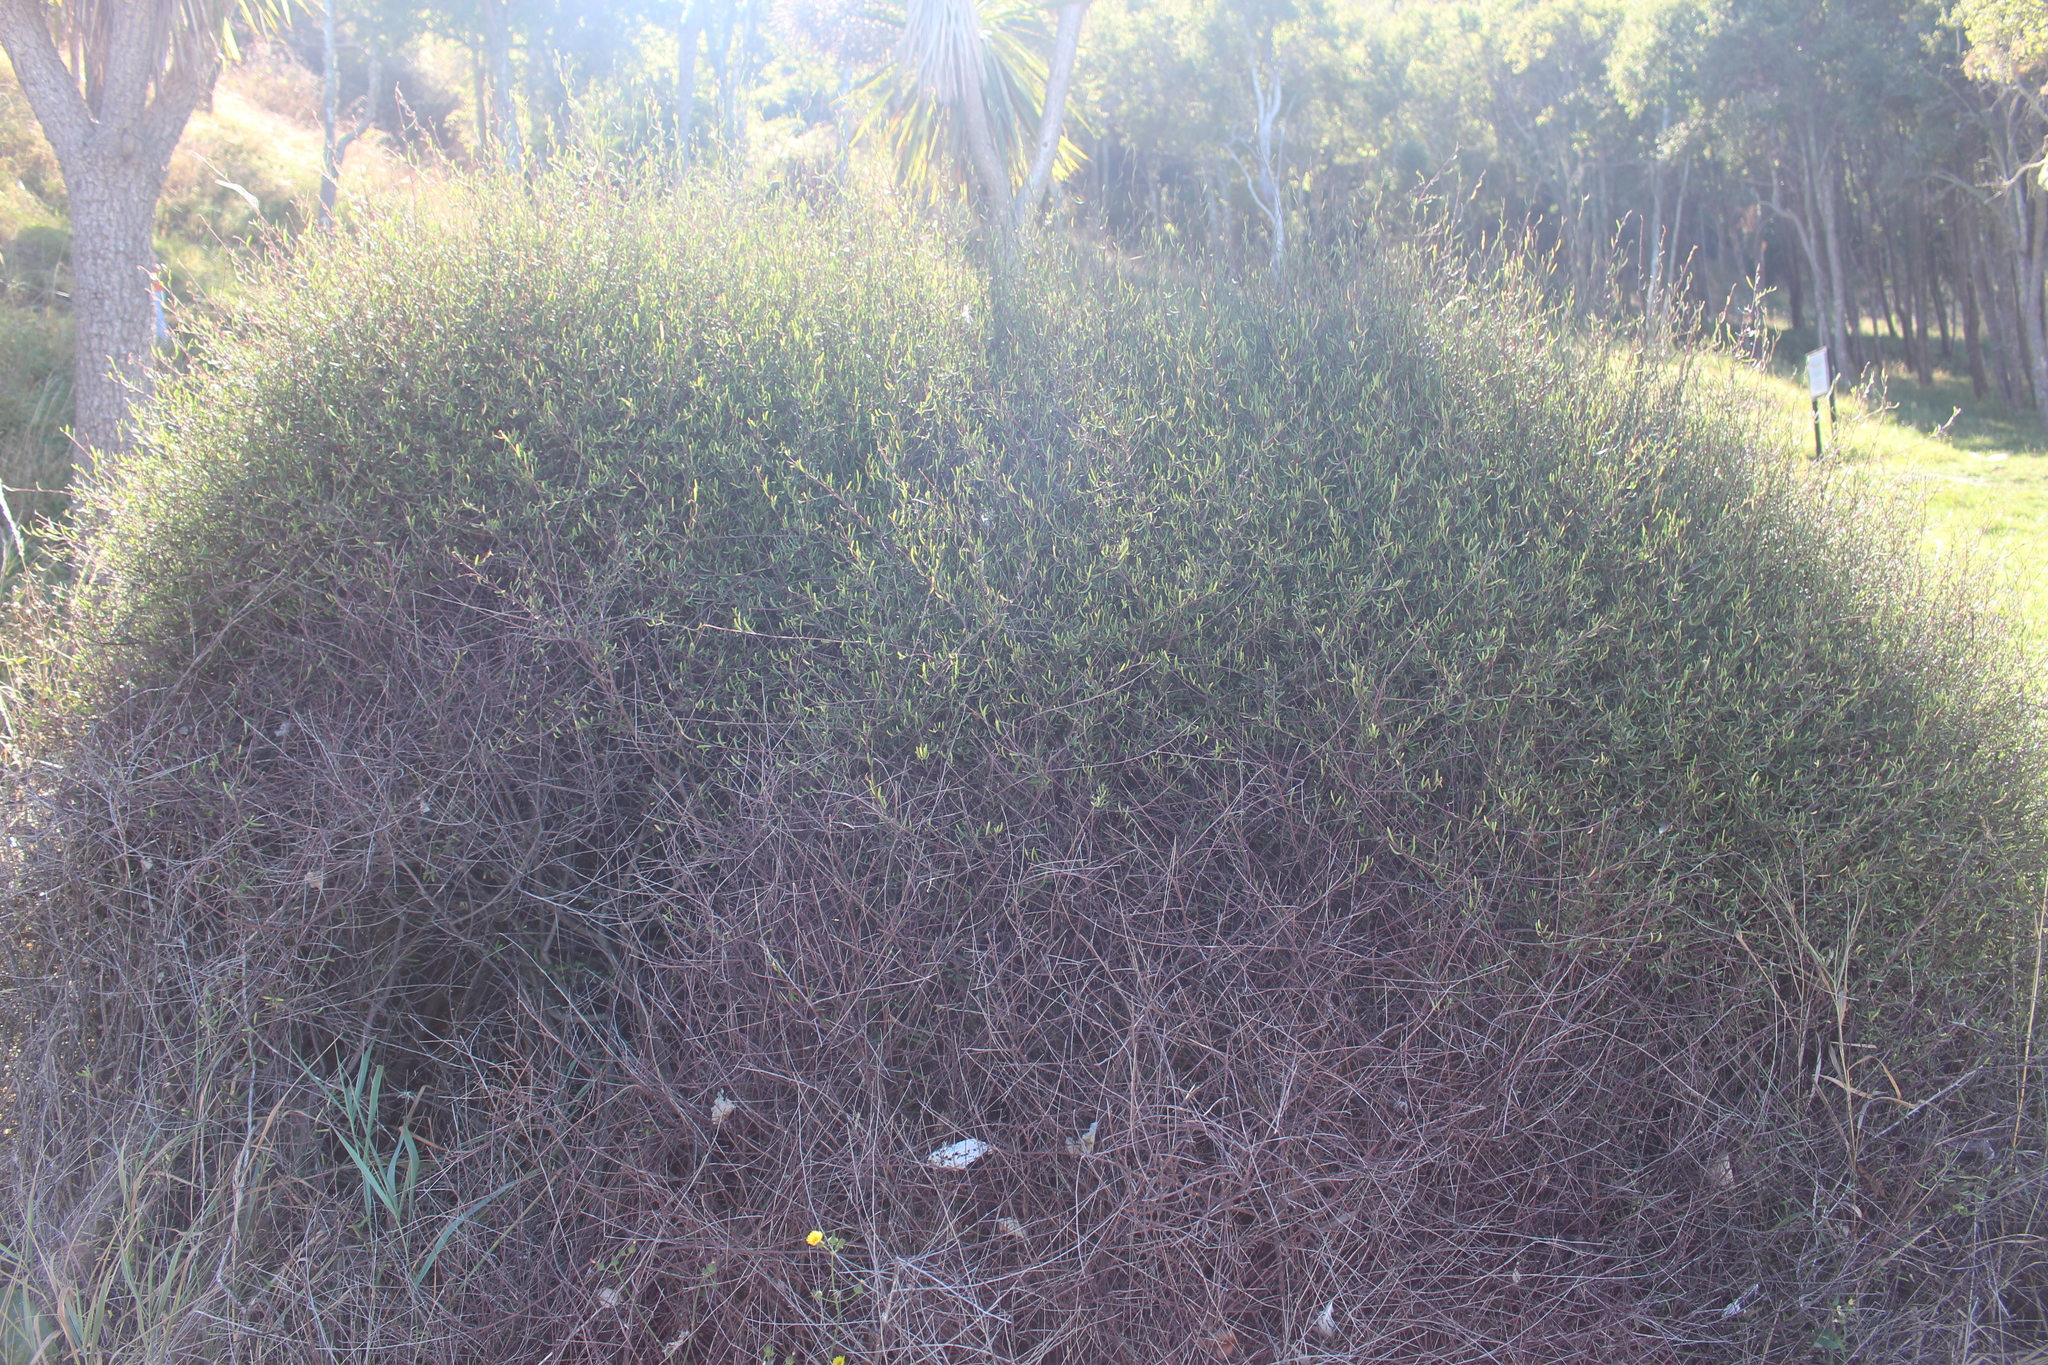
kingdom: Plantae
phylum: Tracheophyta
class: Magnoliopsida
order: Malvales
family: Malvaceae
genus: Plagianthus
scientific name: Plagianthus divaricatus
